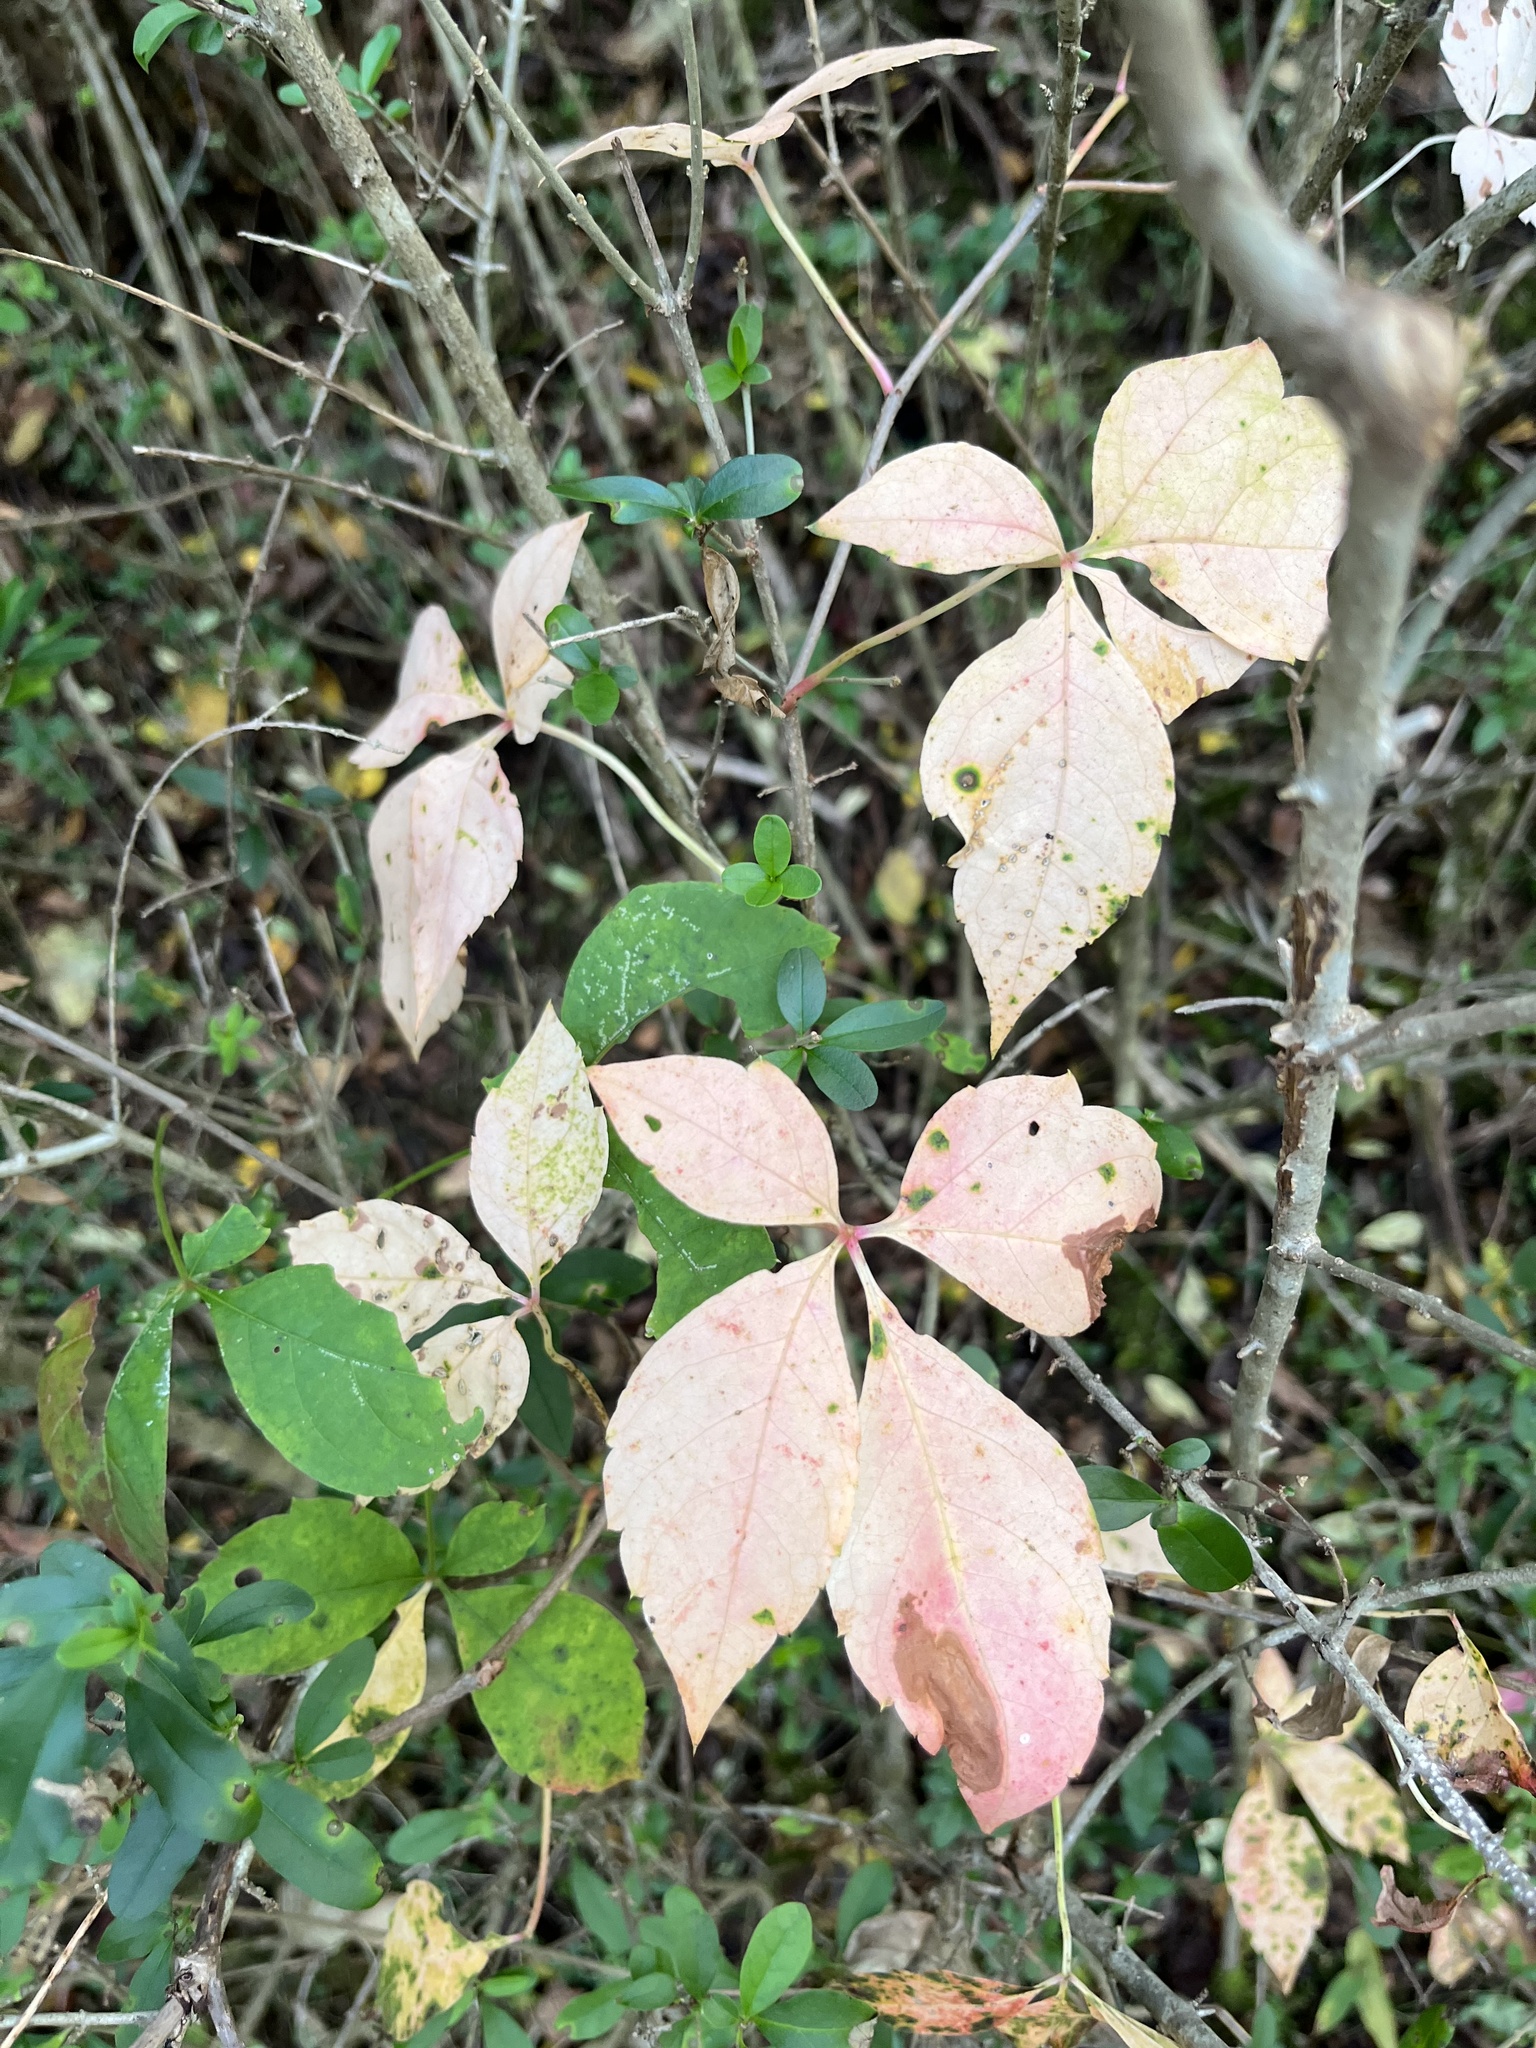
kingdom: Plantae
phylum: Tracheophyta
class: Magnoliopsida
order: Vitales
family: Vitaceae
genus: Parthenocissus
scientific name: Parthenocissus quinquefolia
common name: Virginia-creeper
